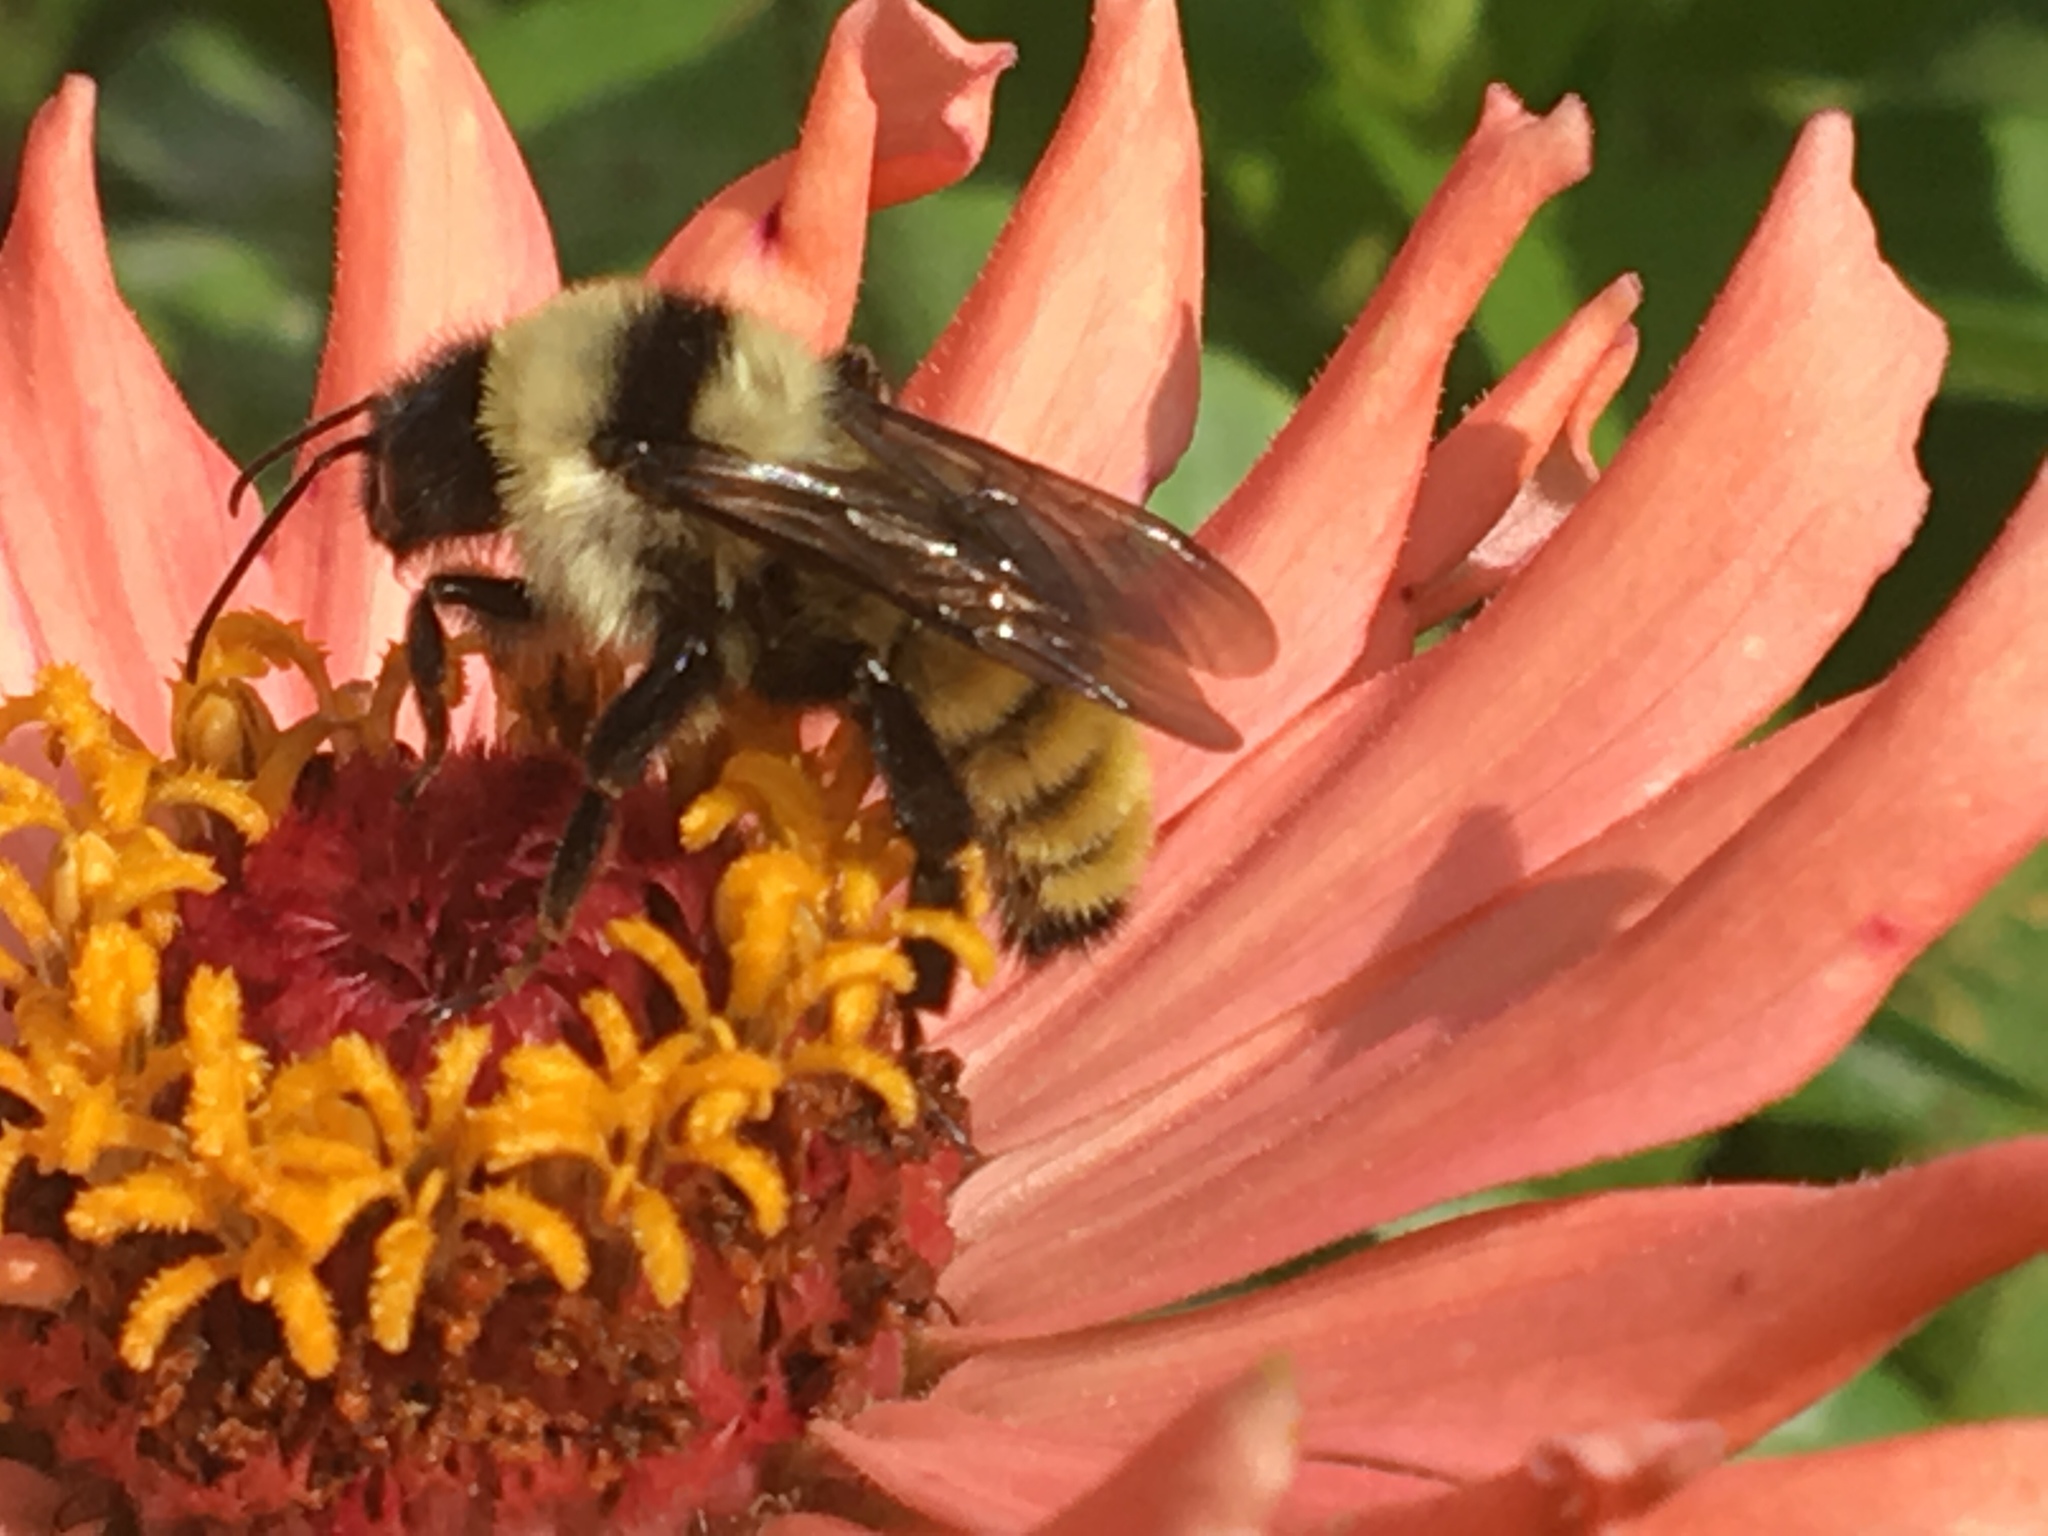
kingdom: Animalia
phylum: Arthropoda
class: Insecta
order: Hymenoptera
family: Apidae
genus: Bombus
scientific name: Bombus fervidus
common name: Yellow bumble bee
